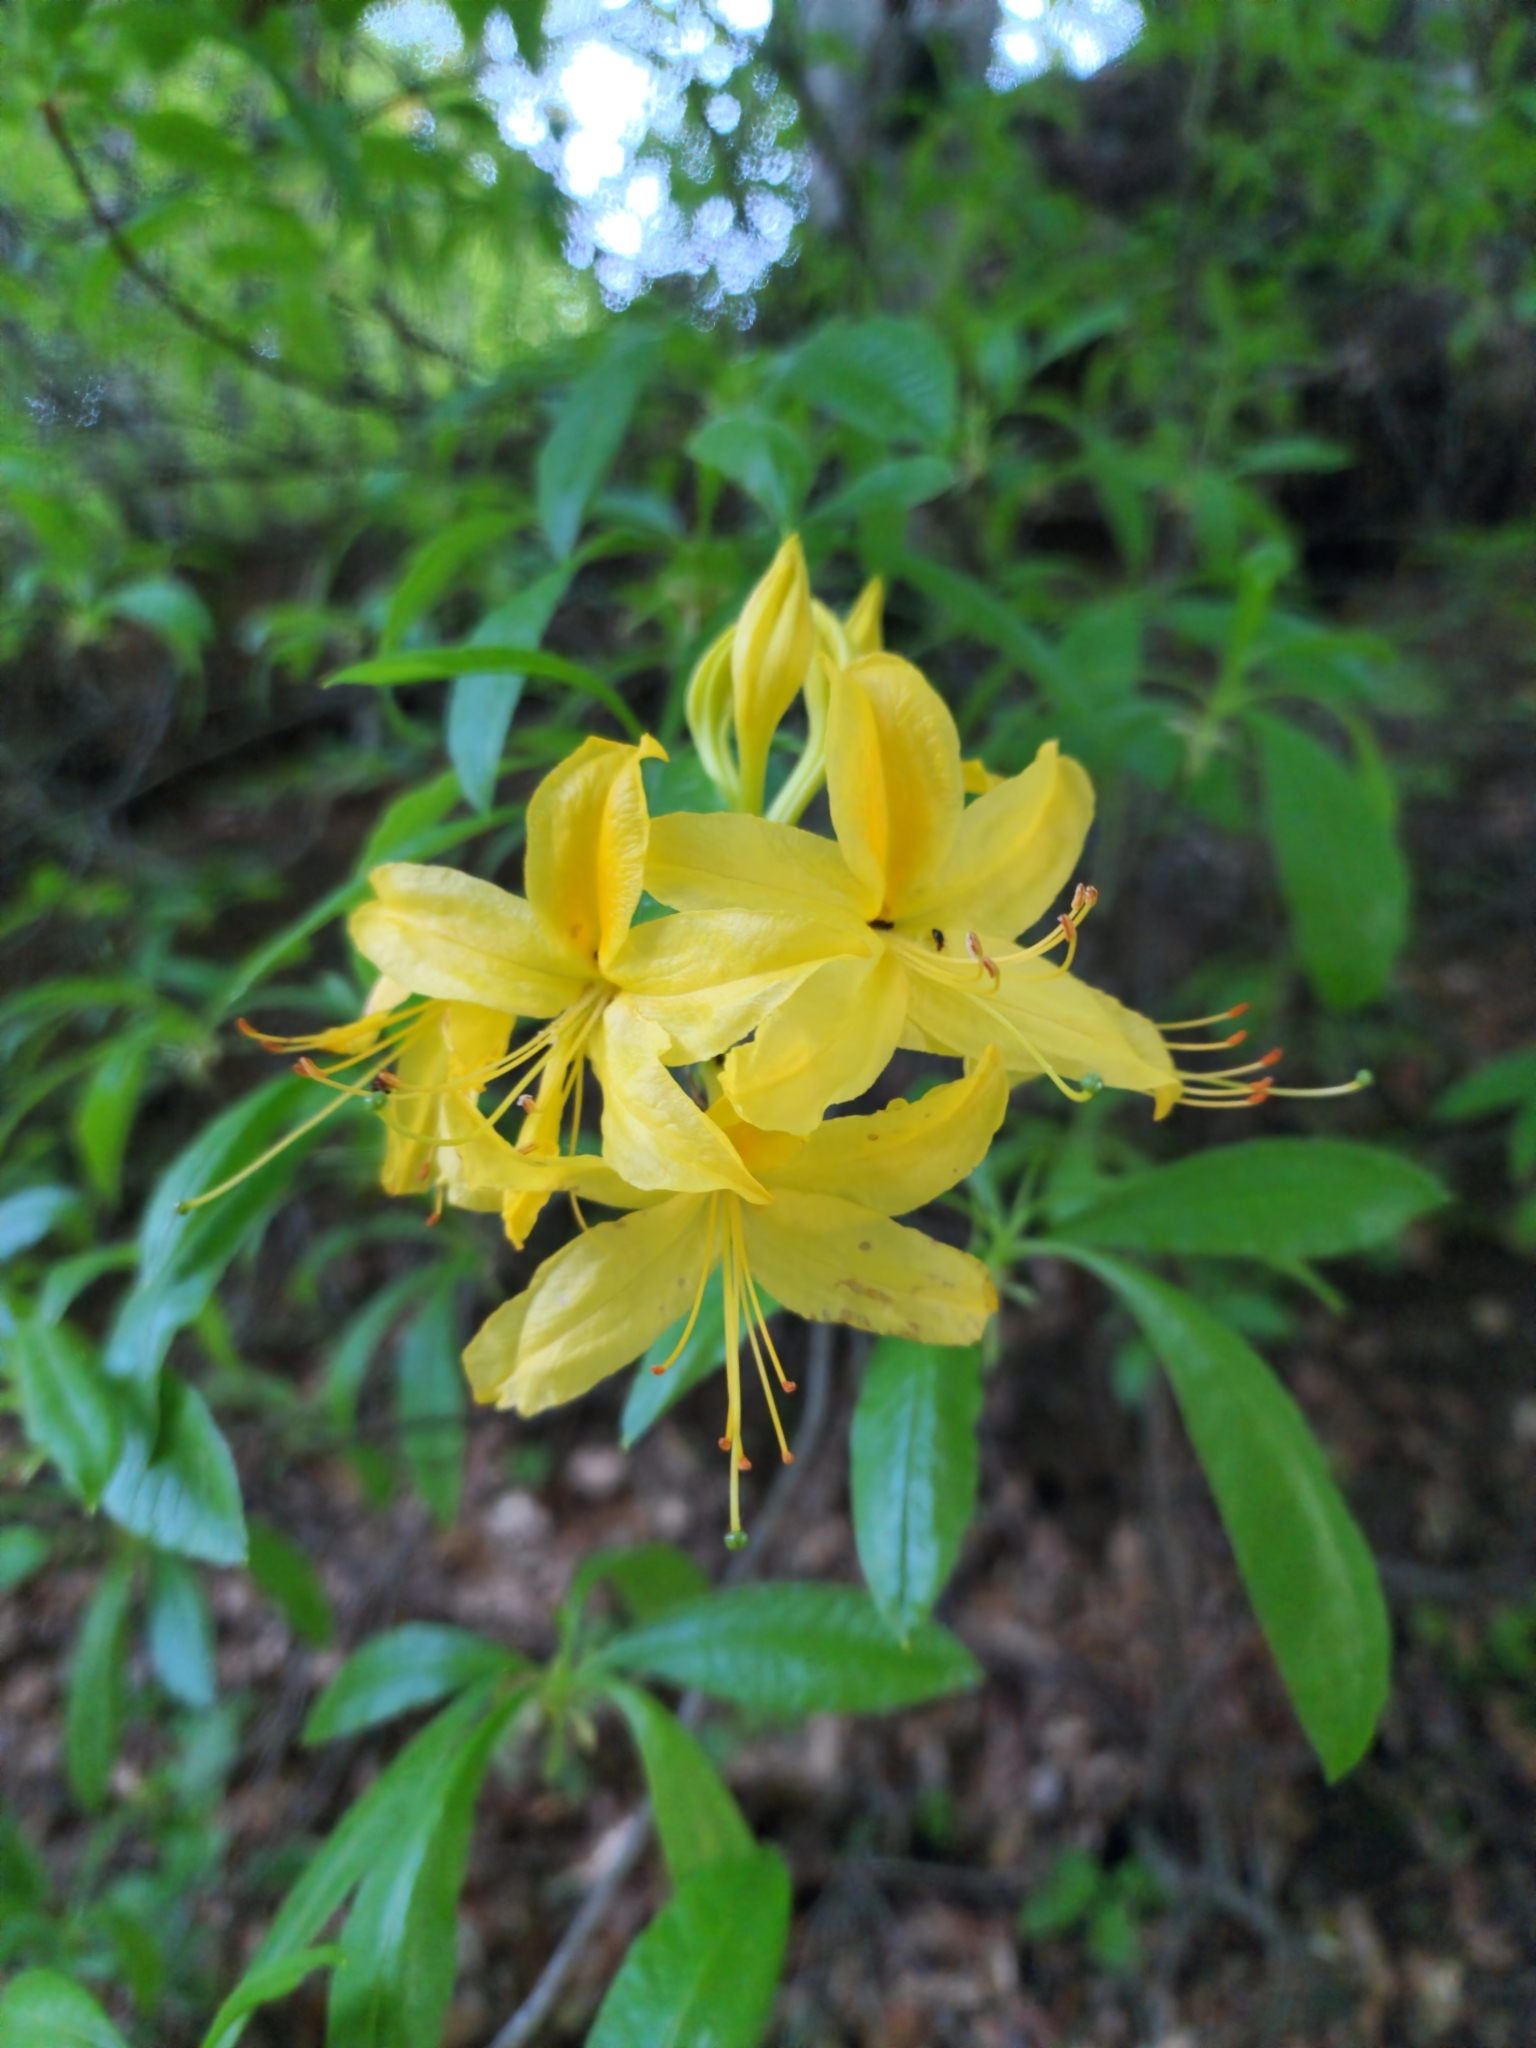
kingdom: Plantae
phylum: Tracheophyta
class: Magnoliopsida
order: Ericales
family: Ericaceae
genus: Rhododendron
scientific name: Rhododendron luteum
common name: Yellow azalea
